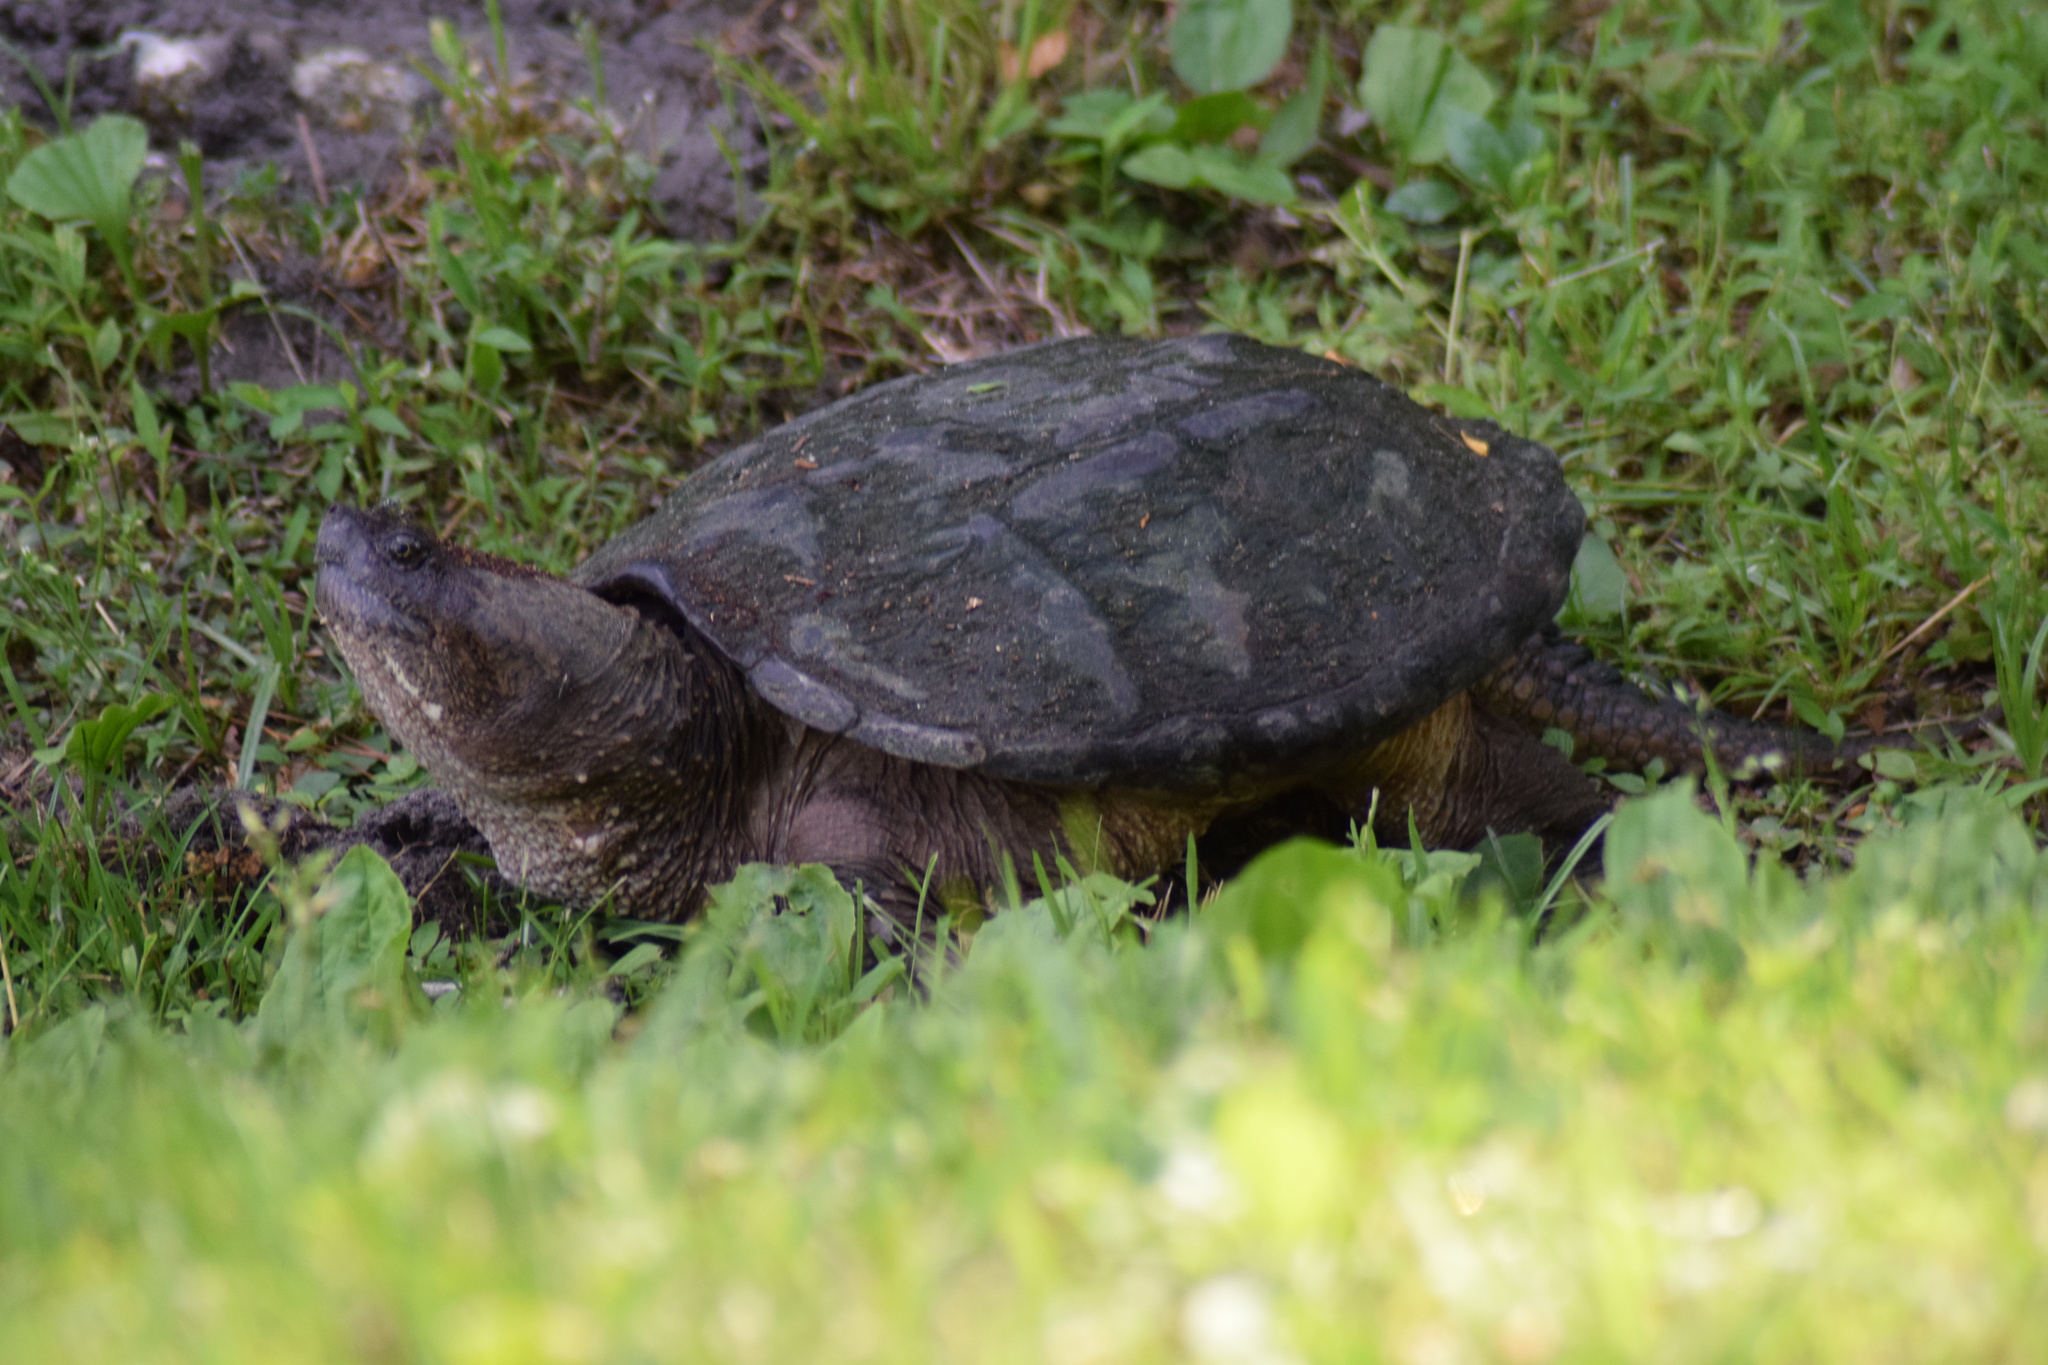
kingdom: Animalia
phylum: Chordata
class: Testudines
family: Chelydridae
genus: Chelydra
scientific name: Chelydra serpentina
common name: Common snapping turtle
